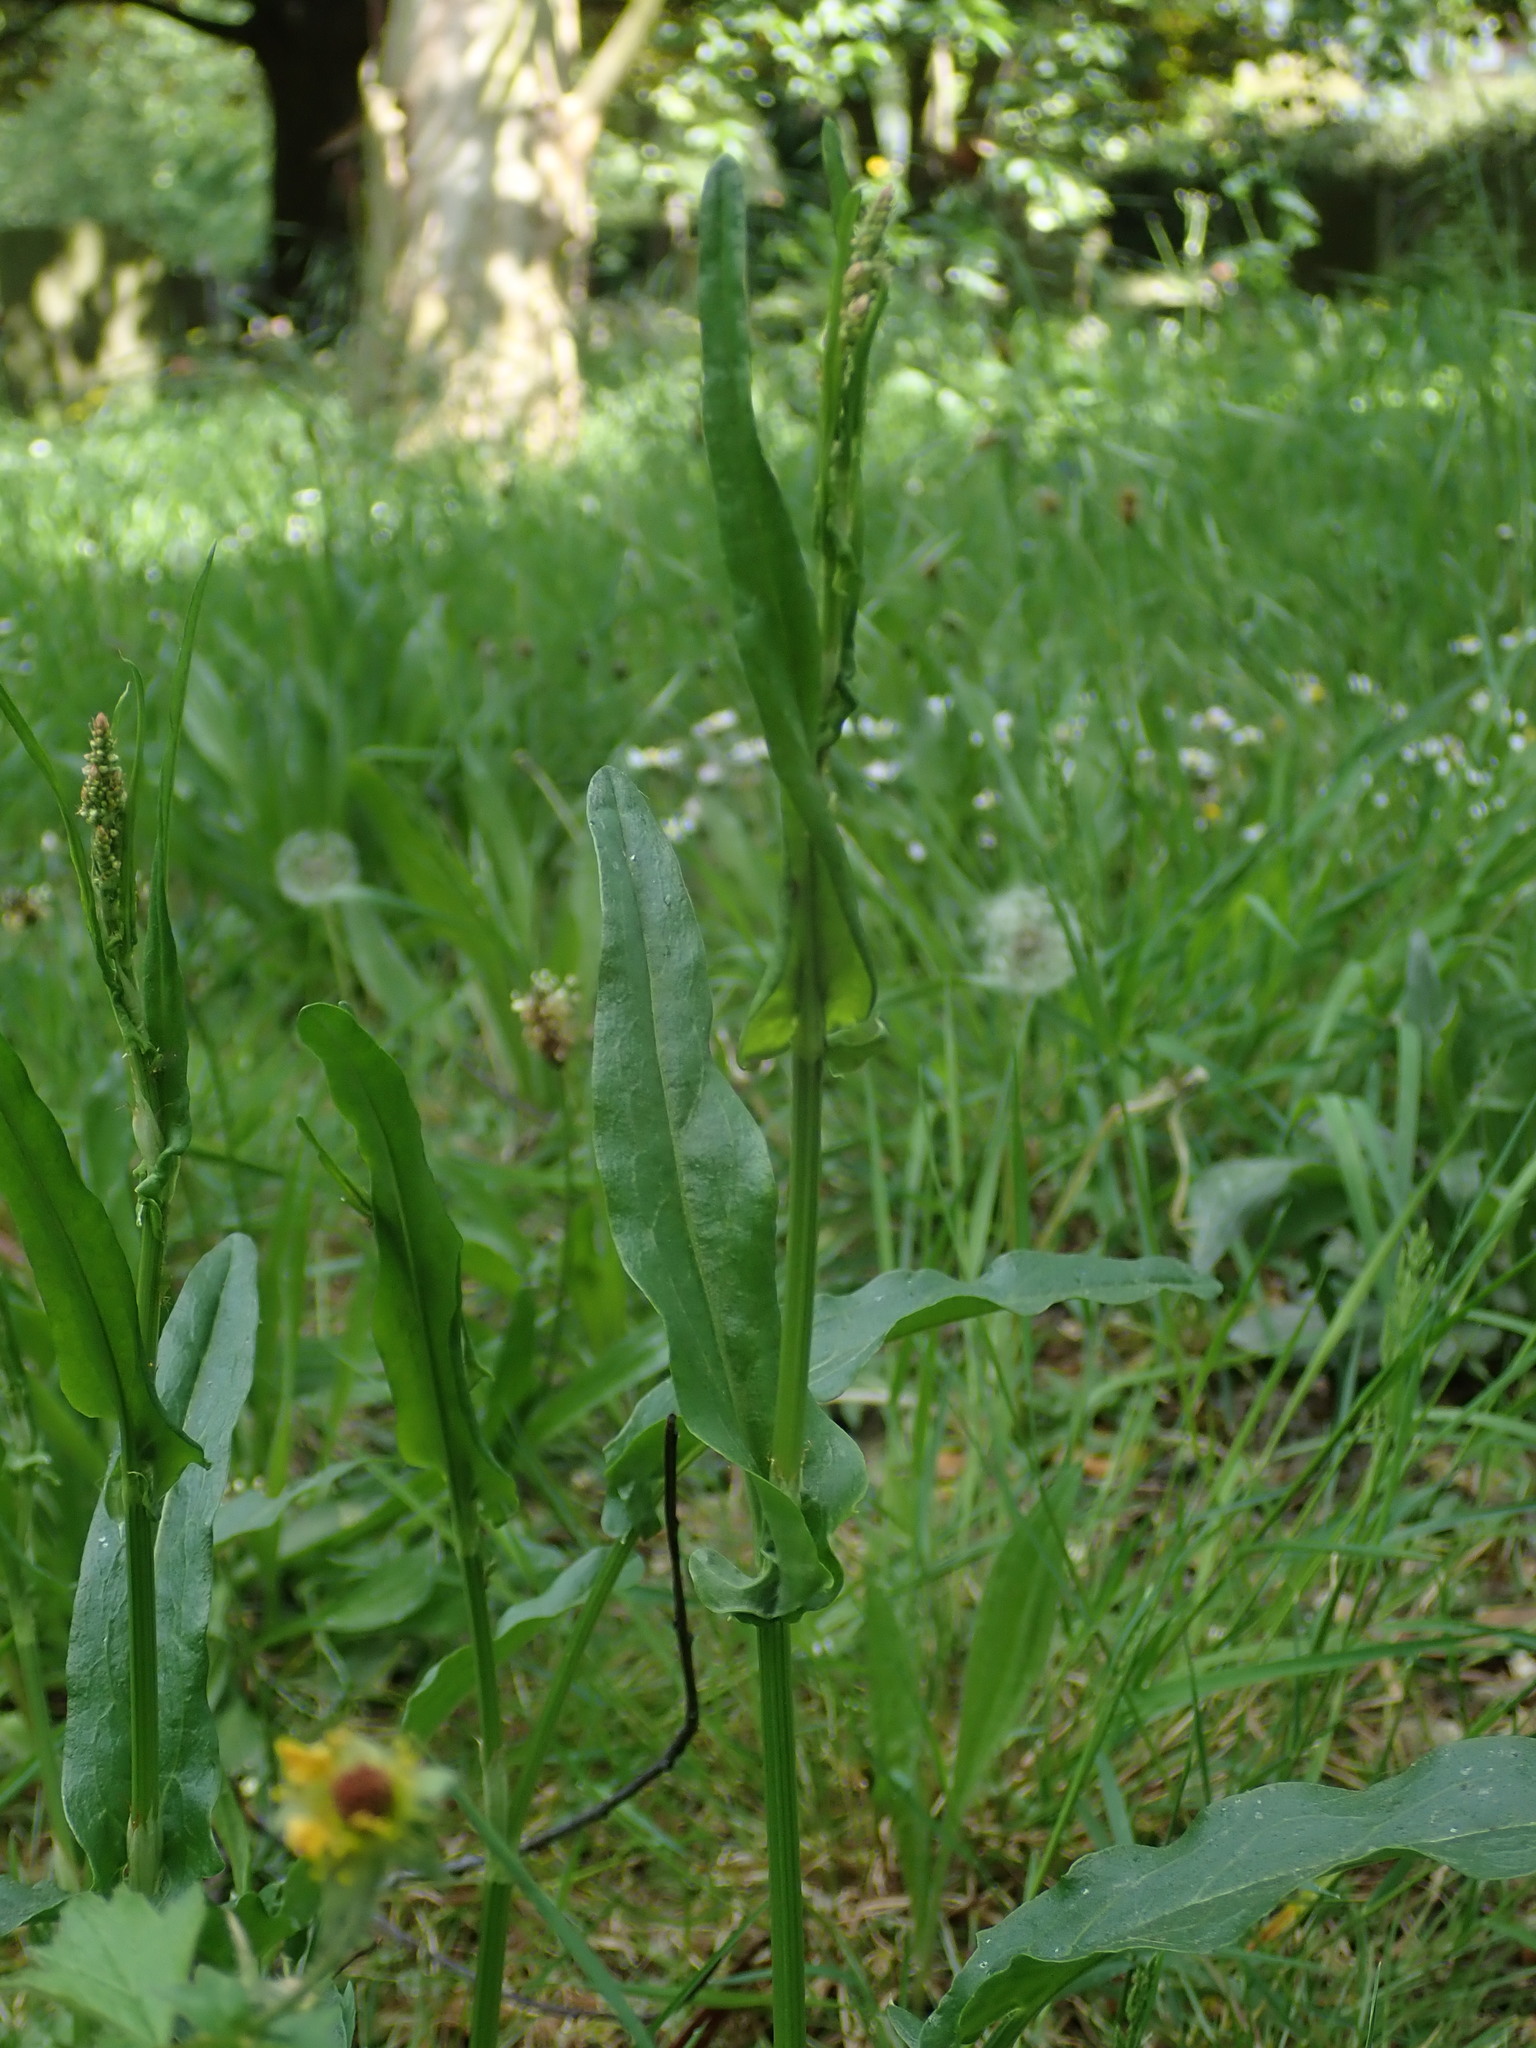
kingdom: Plantae
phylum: Tracheophyta
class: Magnoliopsida
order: Caryophyllales
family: Polygonaceae
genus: Rumex
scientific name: Rumex acetosa
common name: Garden sorrel
